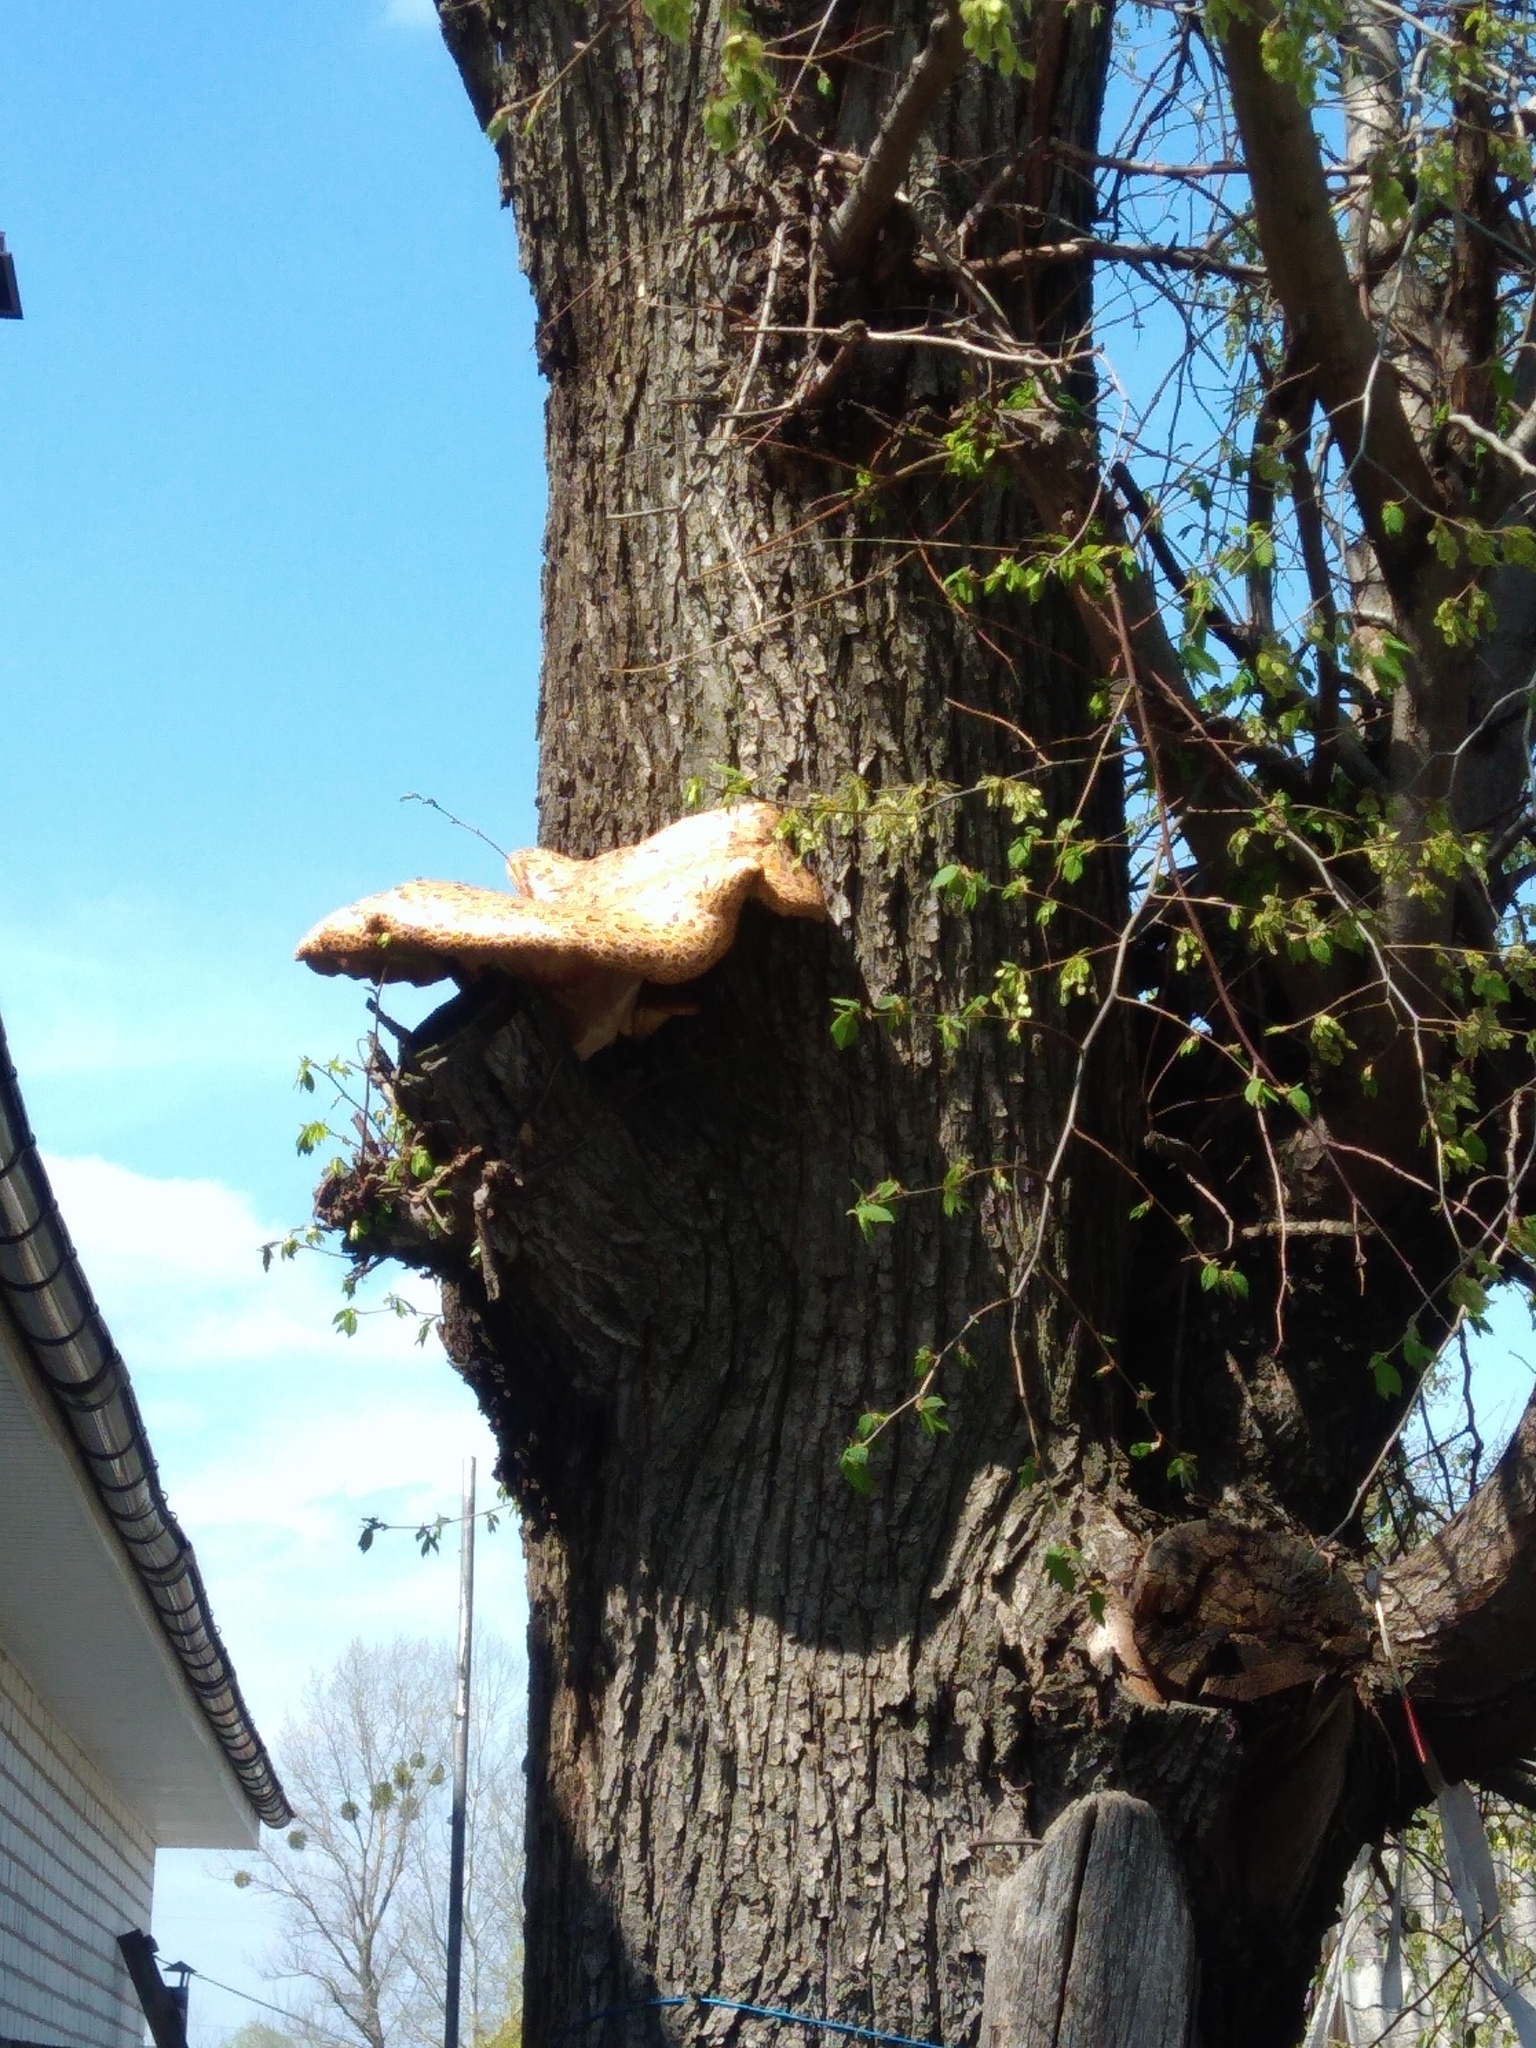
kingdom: Fungi
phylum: Basidiomycota
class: Agaricomycetes
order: Polyporales
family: Polyporaceae
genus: Cerioporus
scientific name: Cerioporus squamosus
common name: Dryad's saddle
